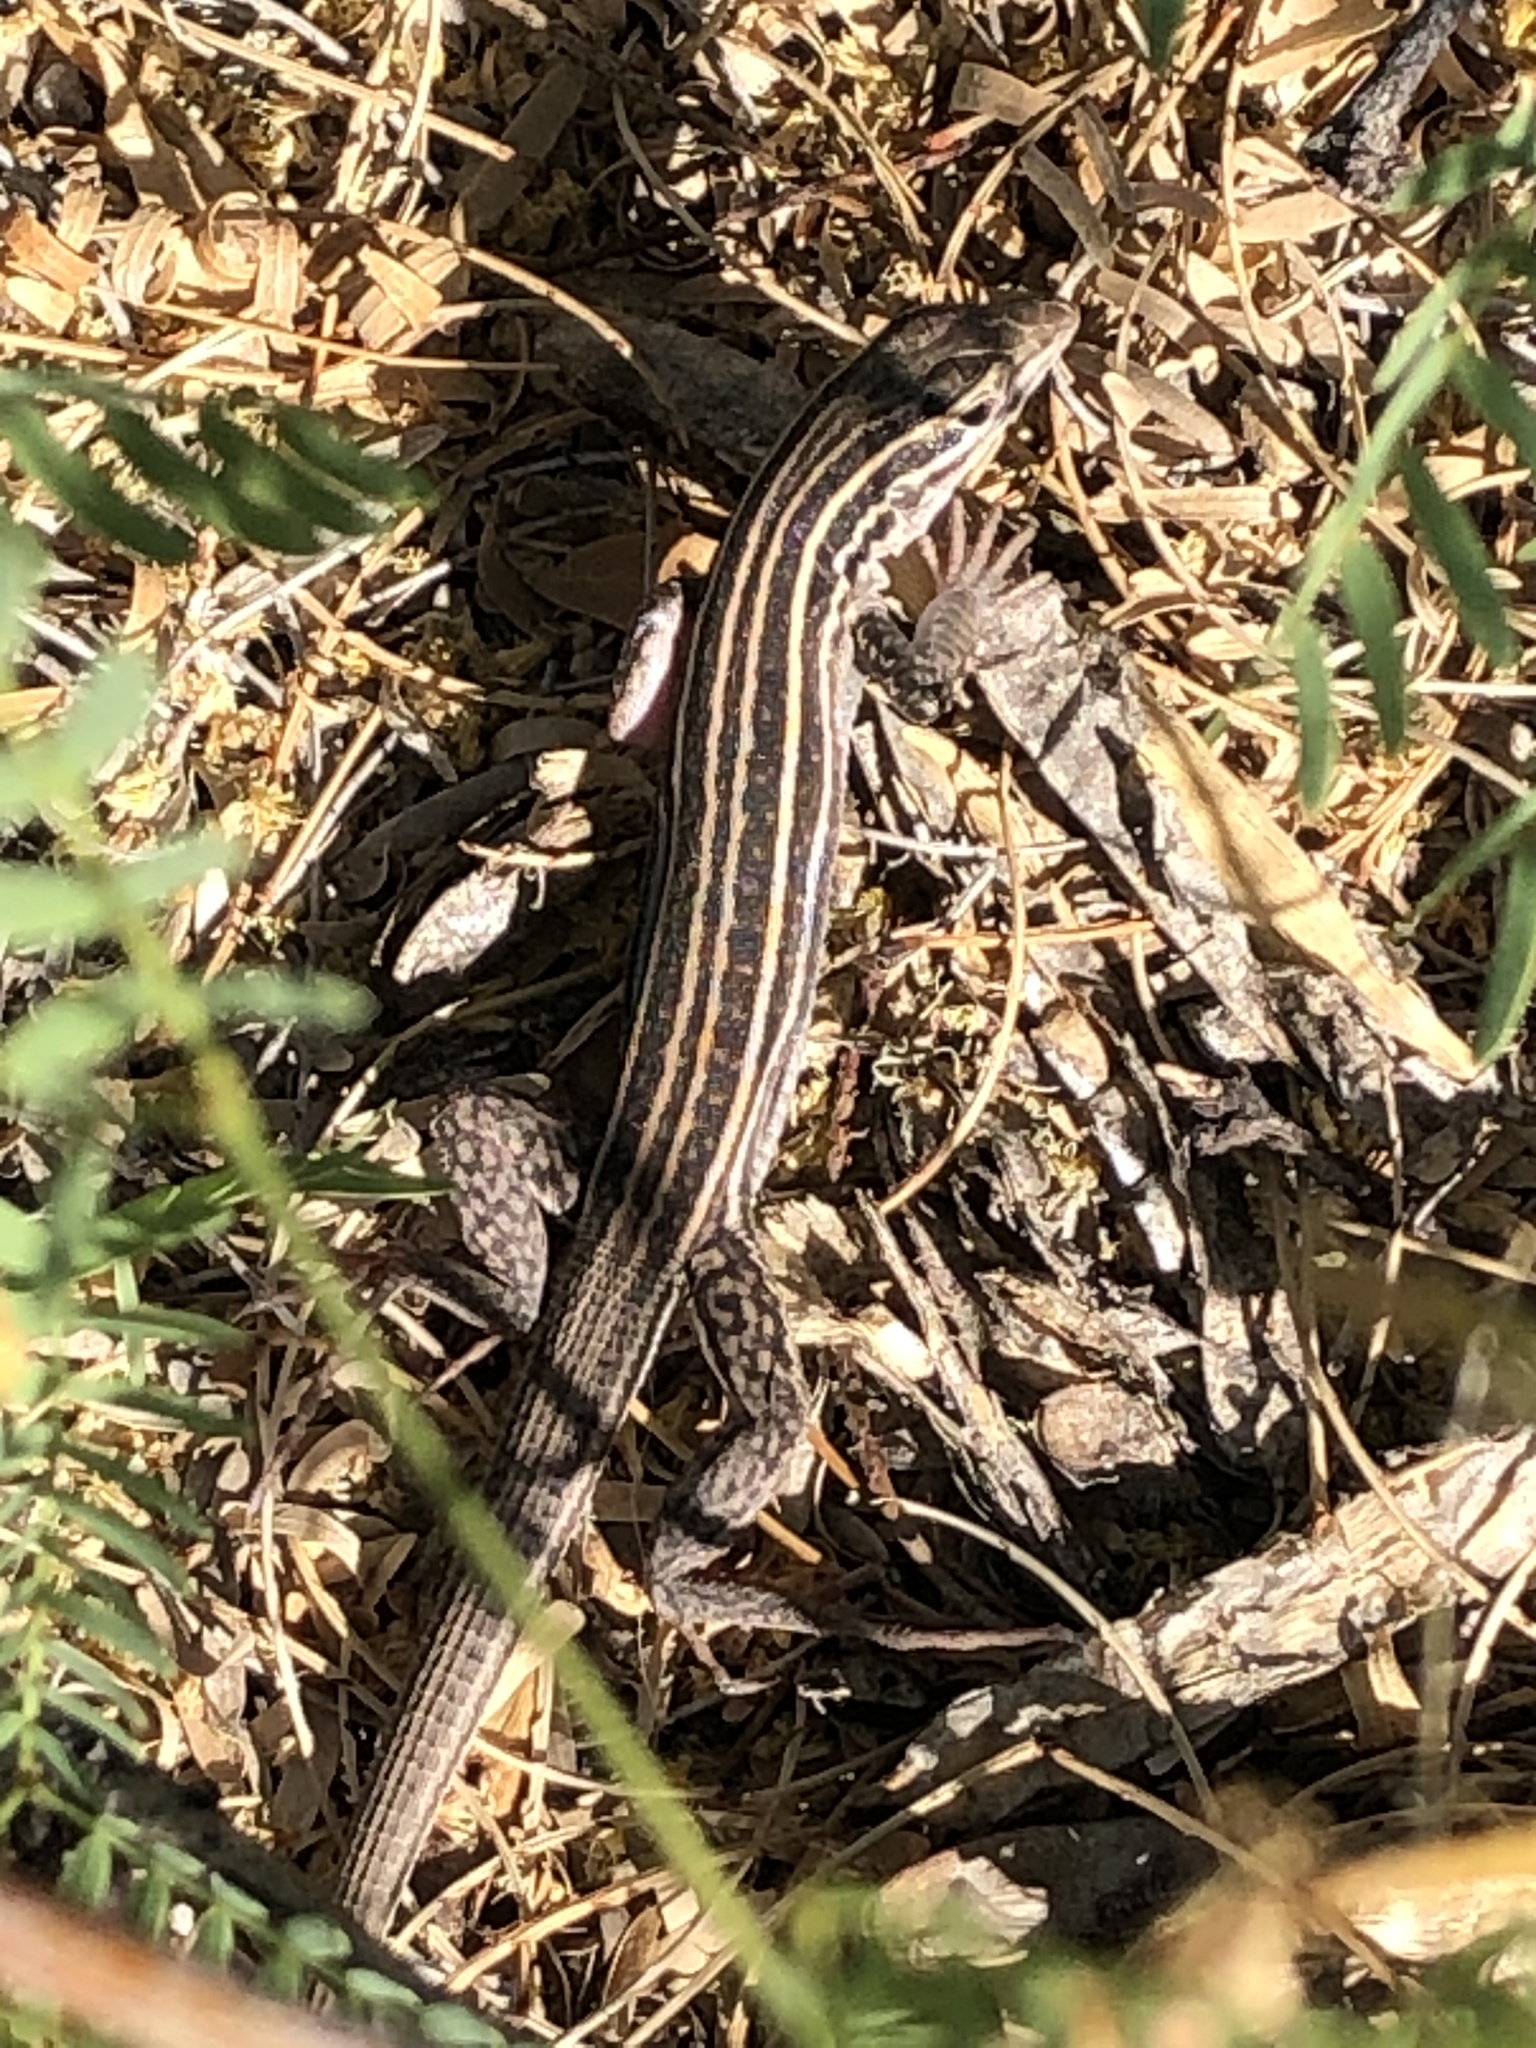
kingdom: Animalia
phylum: Chordata
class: Squamata
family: Teiidae
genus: Aspidoscelis
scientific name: Aspidoscelis exsanguis
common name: Chihuahuan spotted whiptail
